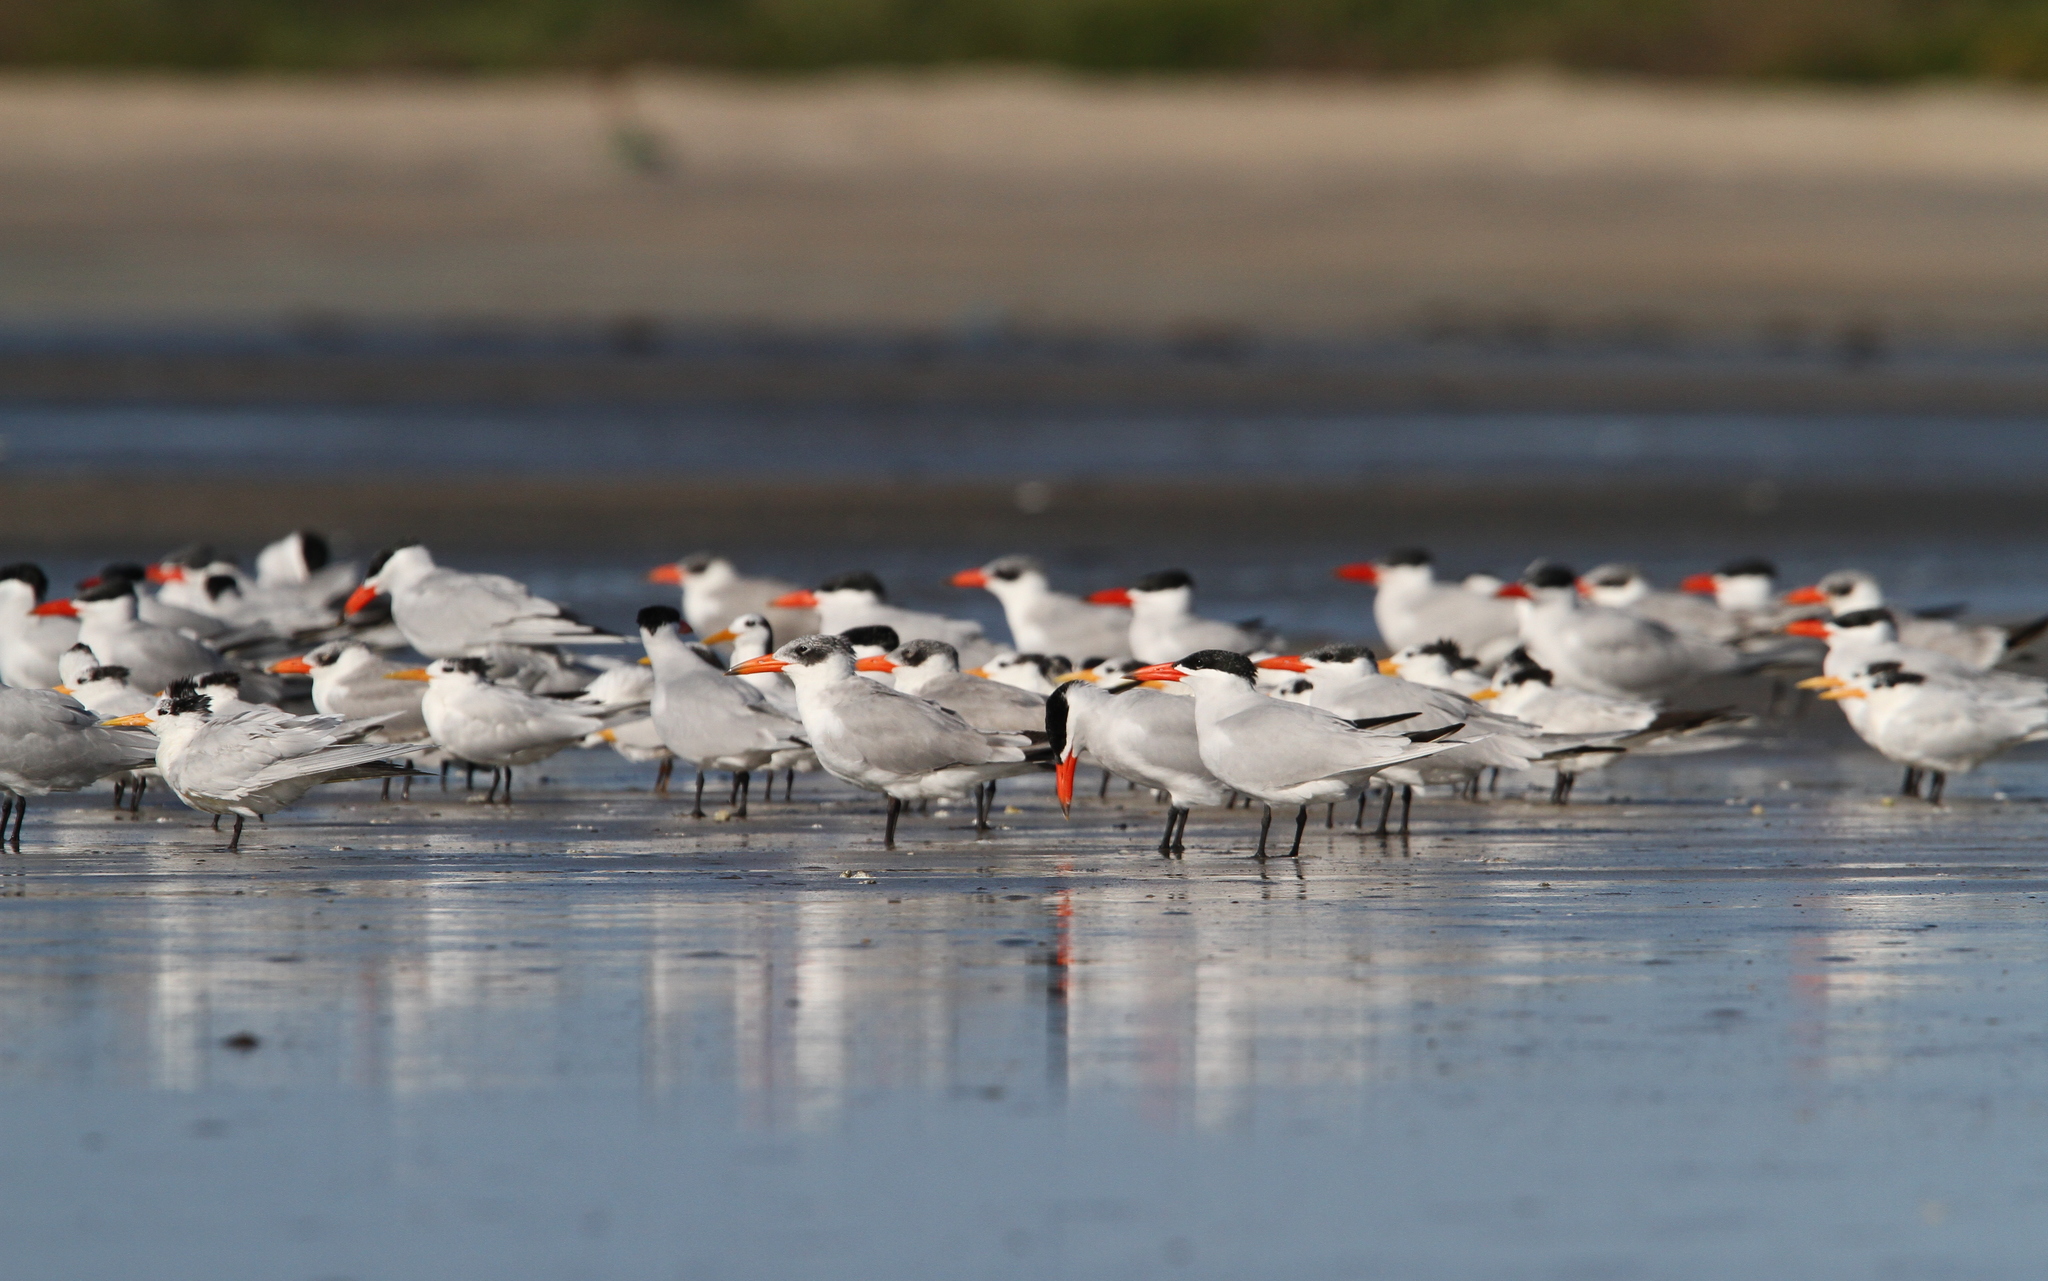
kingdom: Animalia
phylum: Chordata
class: Aves
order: Charadriiformes
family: Laridae
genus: Hydroprogne
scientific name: Hydroprogne caspia
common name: Caspian tern
